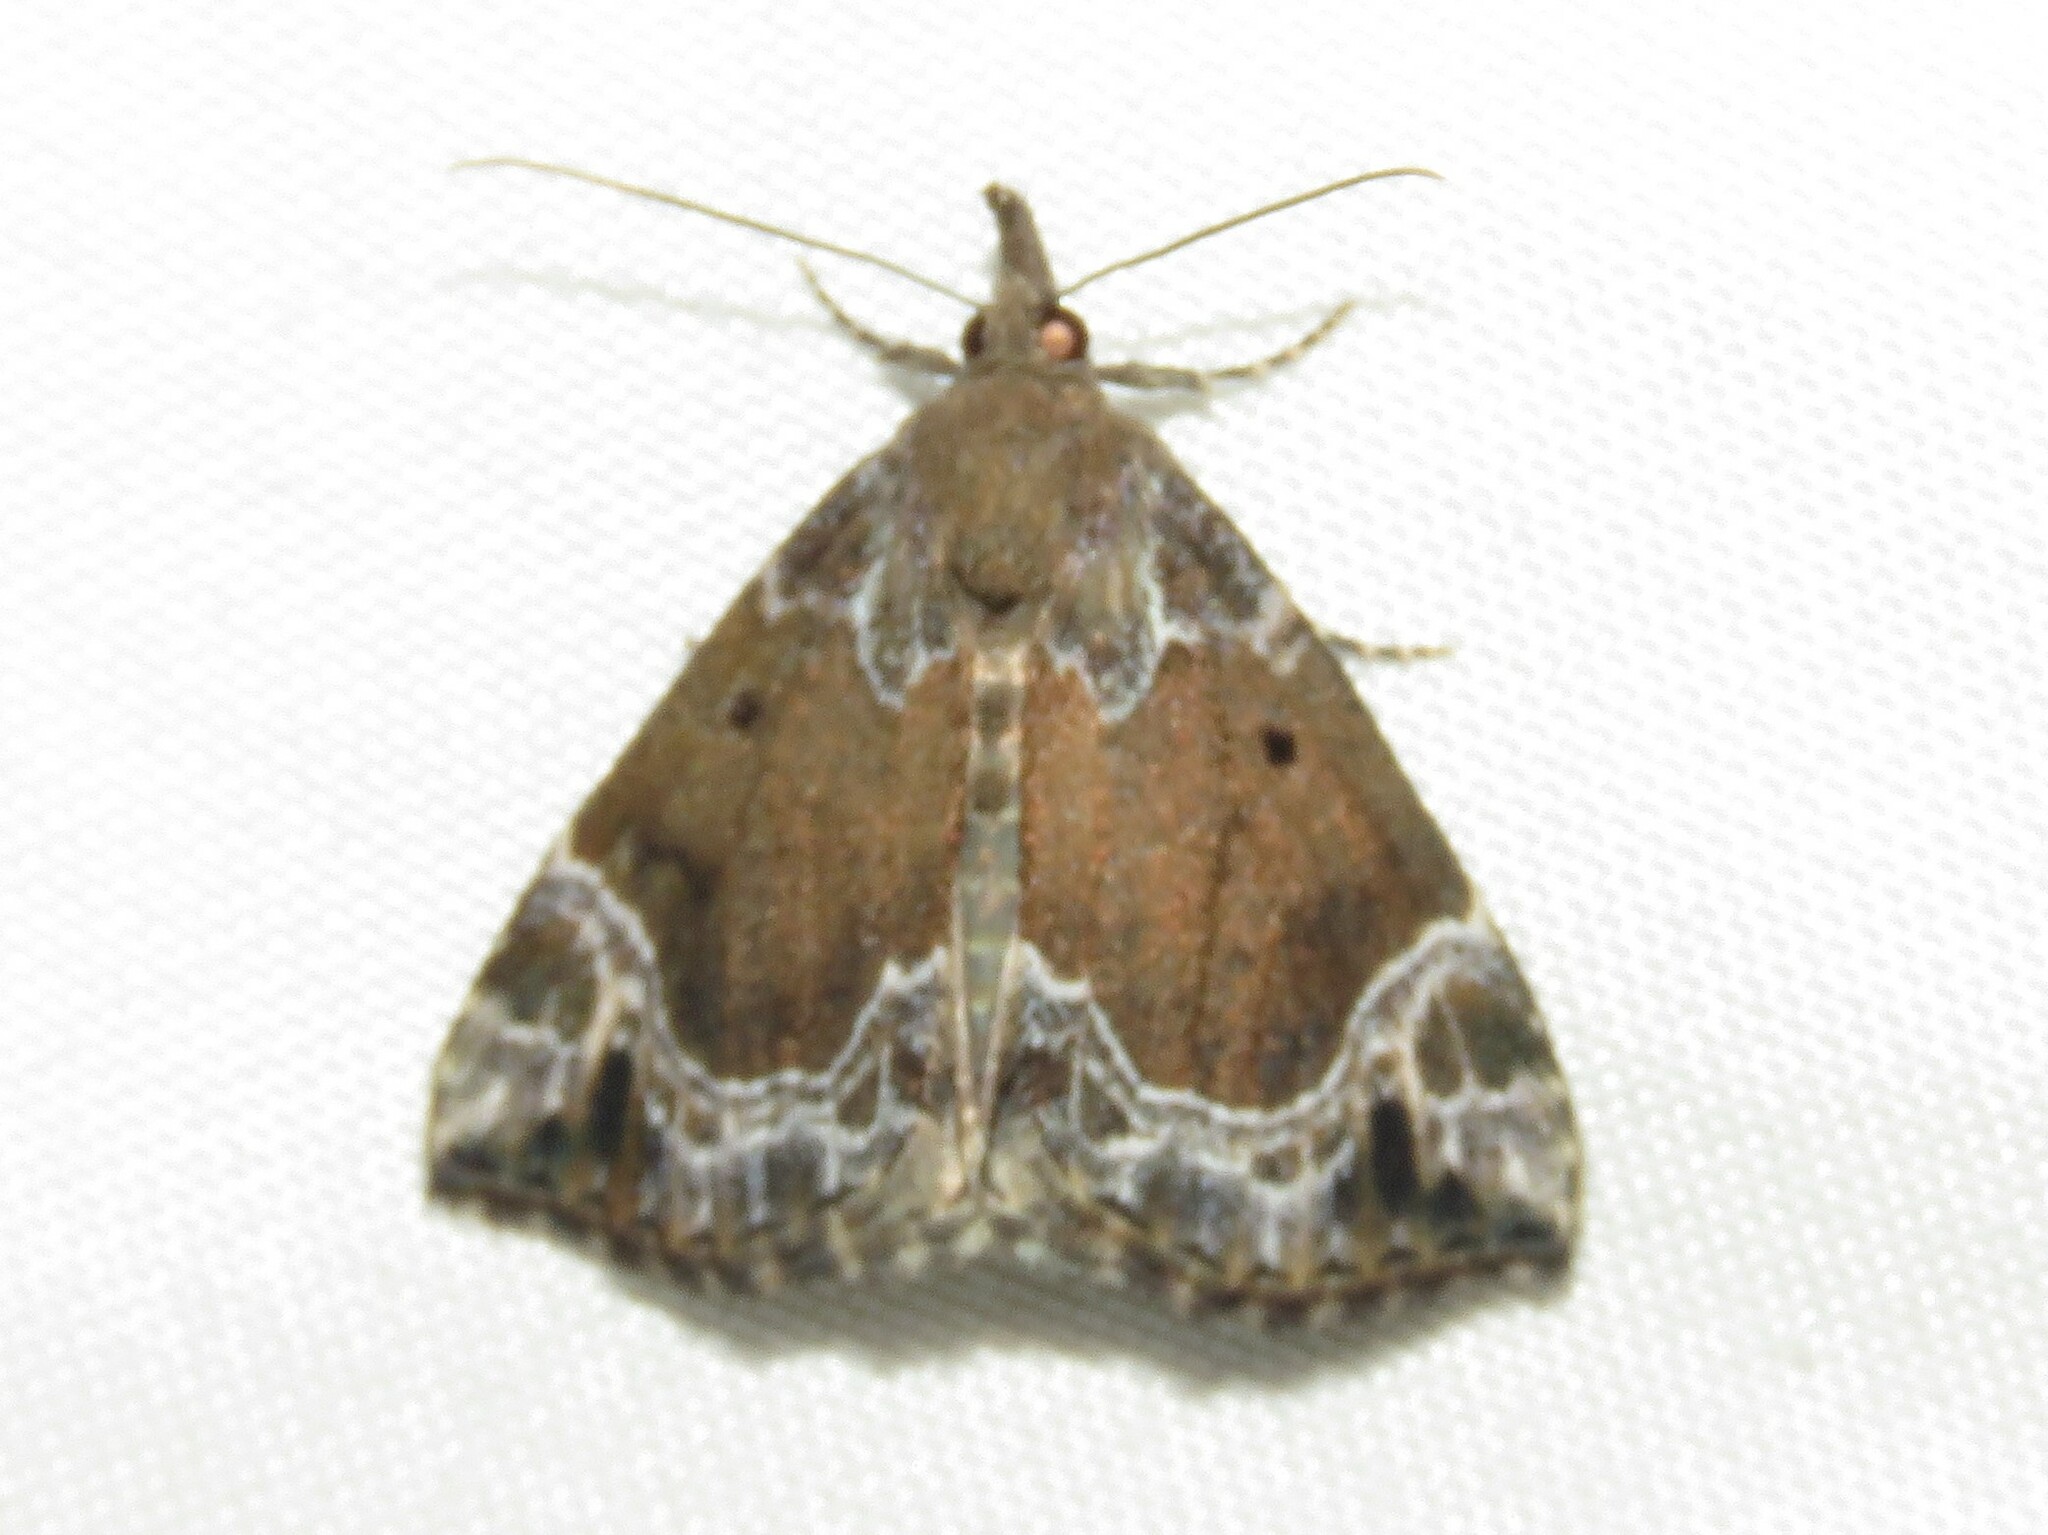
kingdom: Animalia
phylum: Arthropoda
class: Insecta
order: Lepidoptera
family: Erebidae
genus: Hypena
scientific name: Hypena abalienalis
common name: White-lined snout
